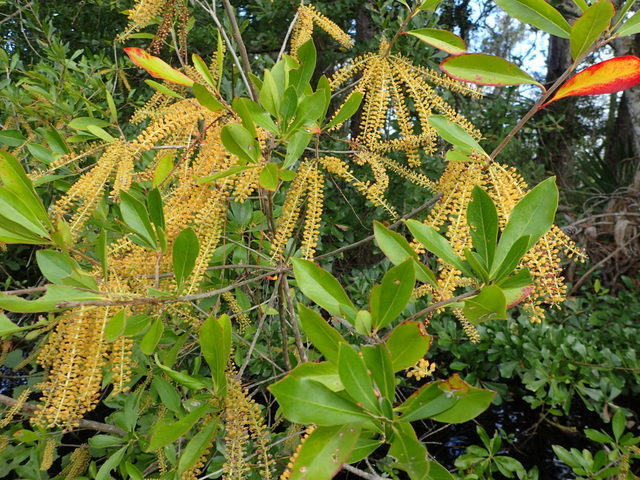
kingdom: Plantae
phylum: Tracheophyta
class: Magnoliopsida
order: Ericales
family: Cyrillaceae
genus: Cyrilla
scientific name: Cyrilla racemiflora
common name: Black titi
